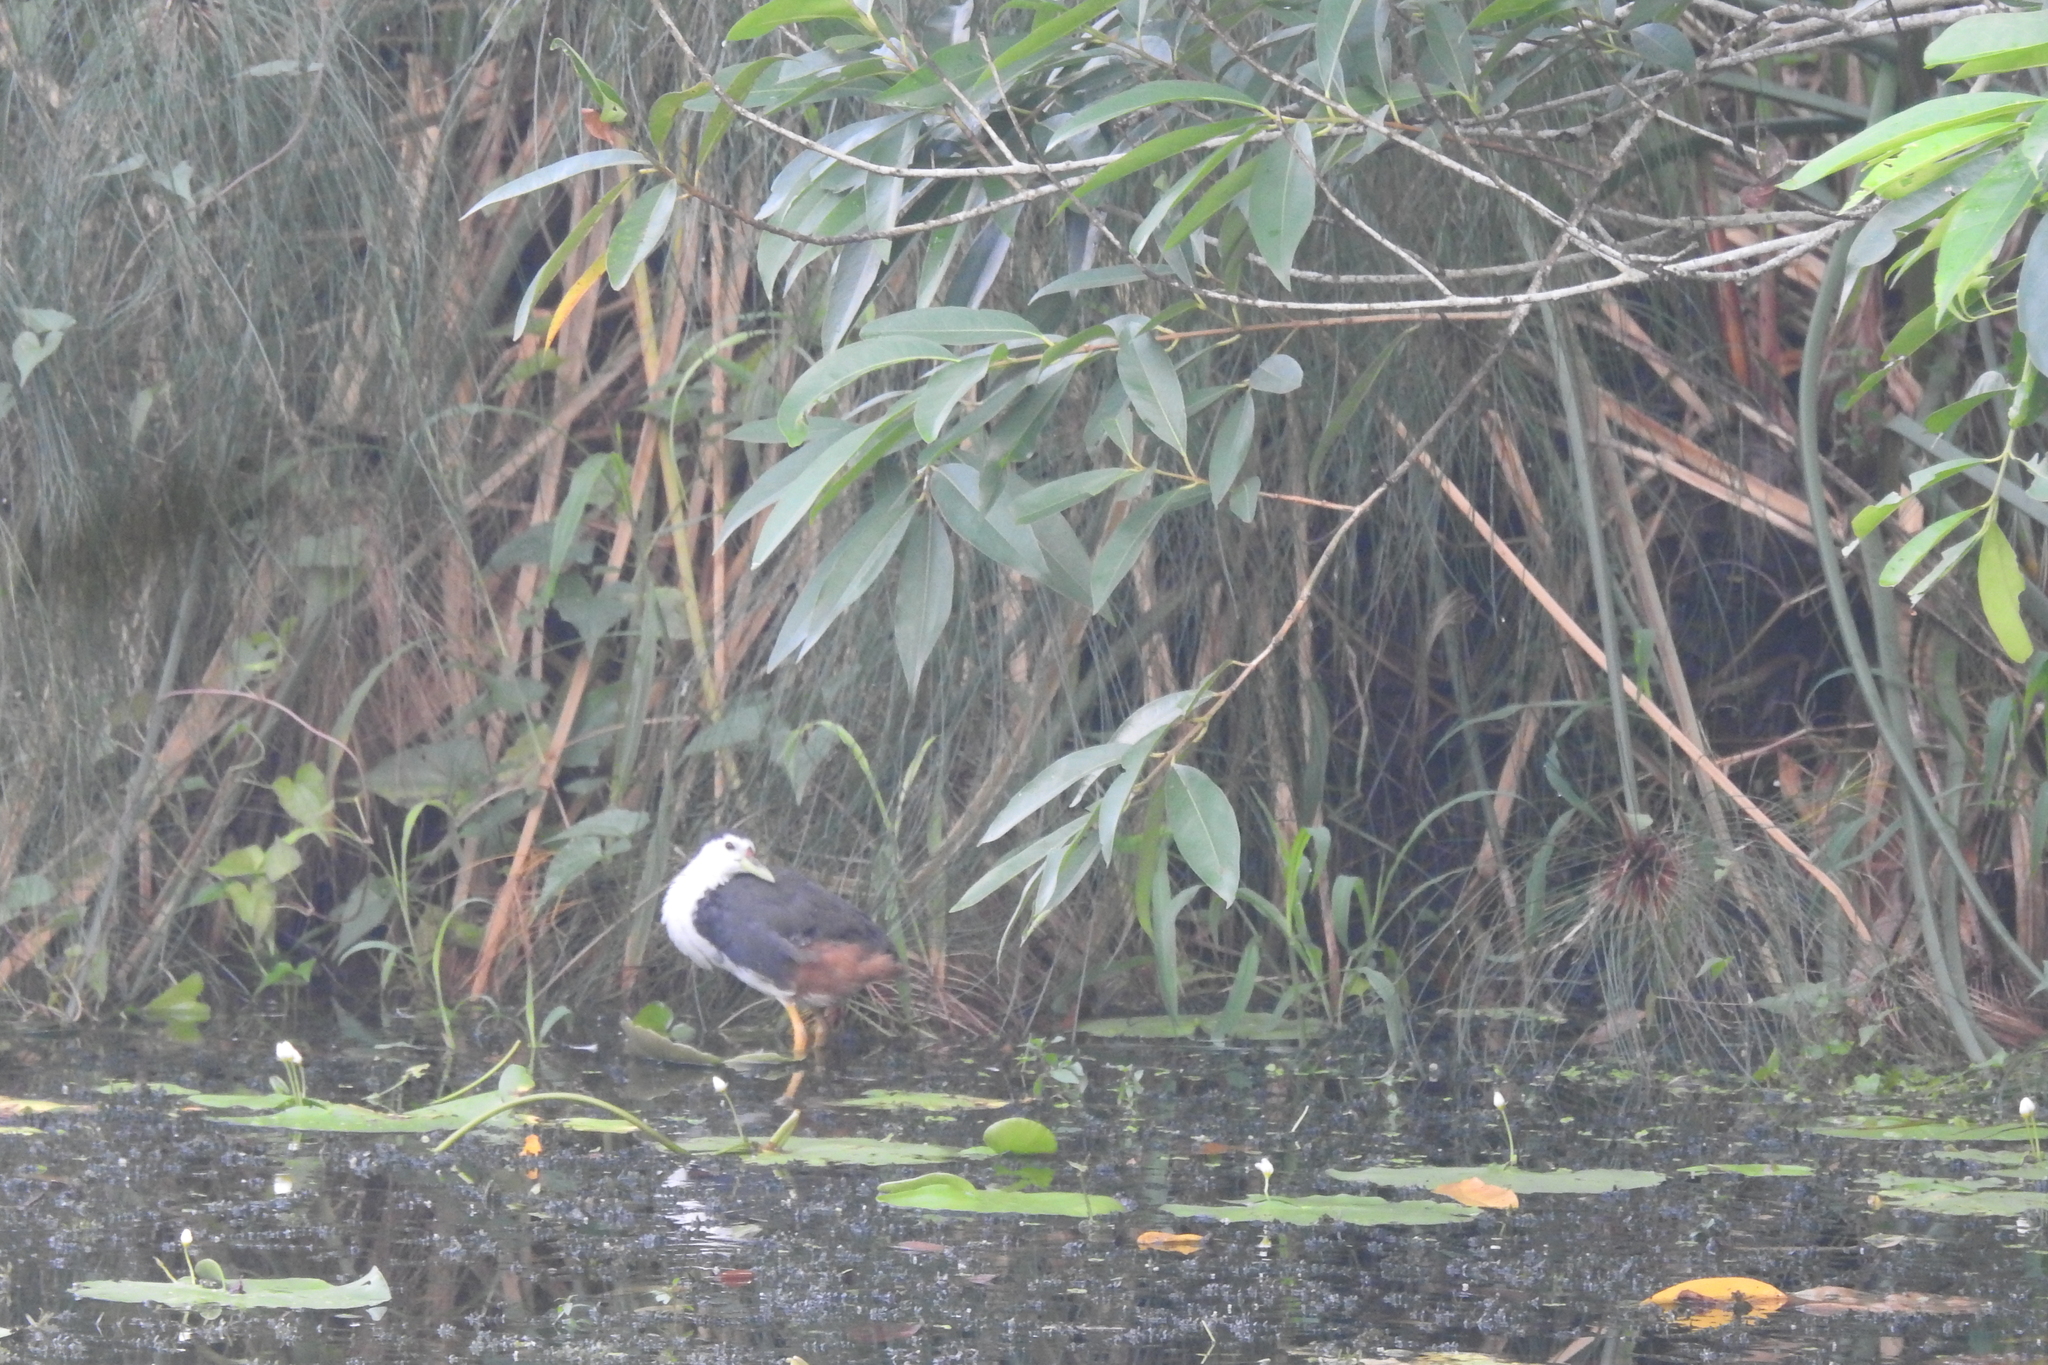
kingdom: Animalia
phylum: Chordata
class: Aves
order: Gruiformes
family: Rallidae
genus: Amaurornis
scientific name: Amaurornis phoenicurus
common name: White-breasted waterhen
